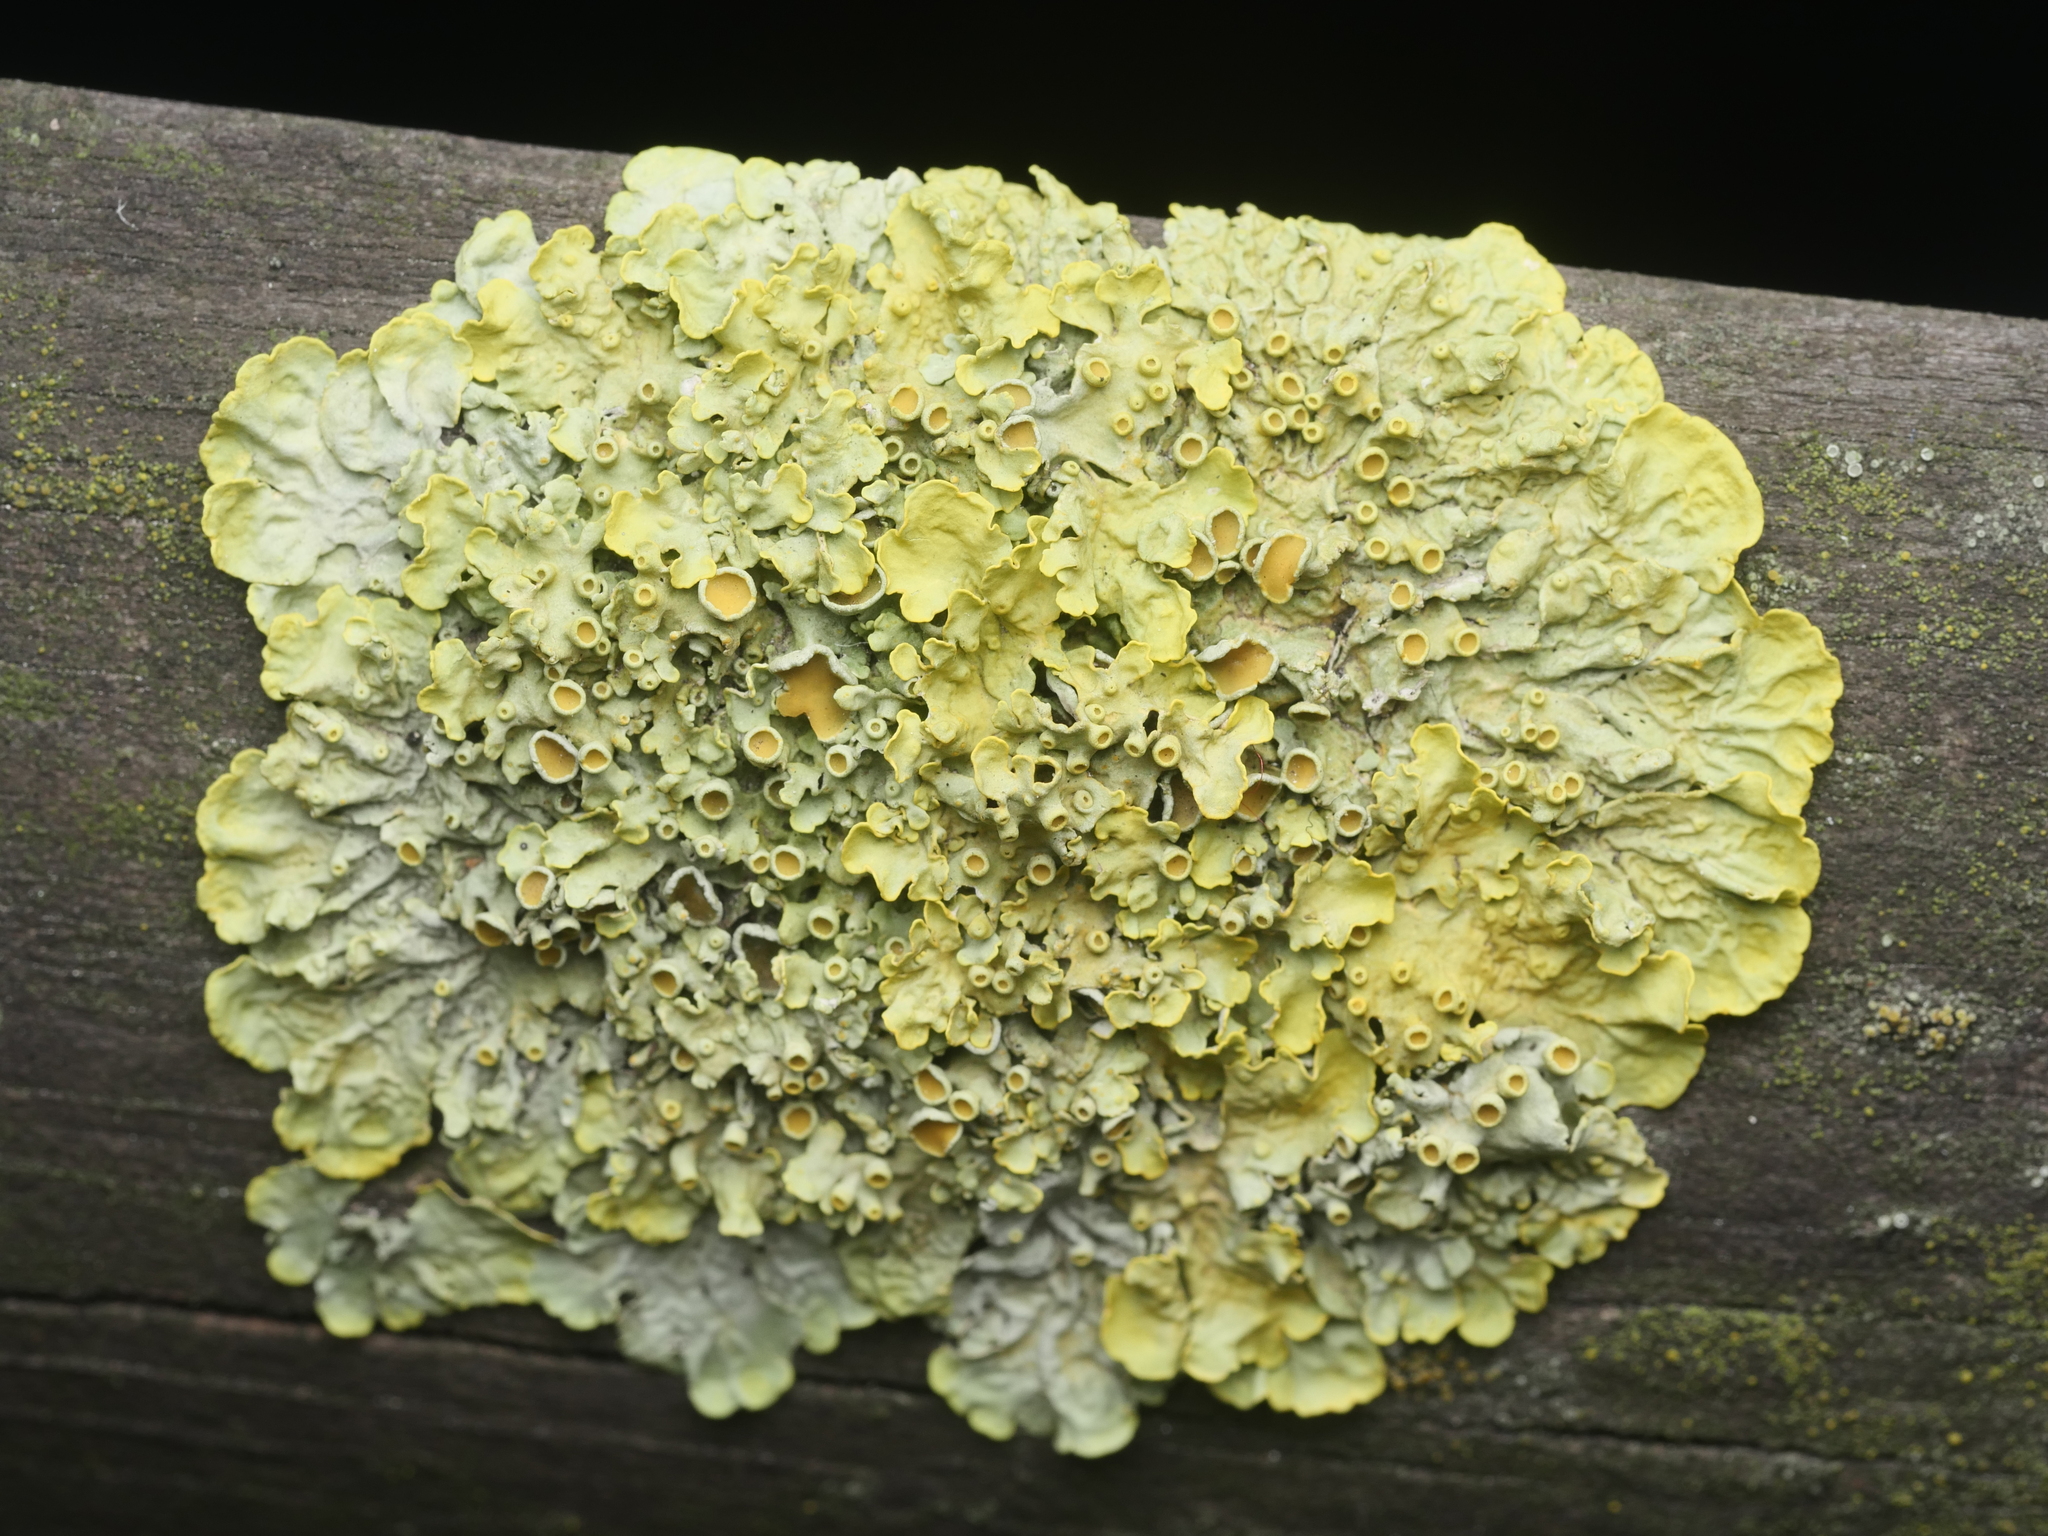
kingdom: Fungi
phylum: Ascomycota
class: Lecanoromycetes
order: Teloschistales
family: Teloschistaceae
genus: Xanthoria
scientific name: Xanthoria parietina
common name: Common orange lichen
